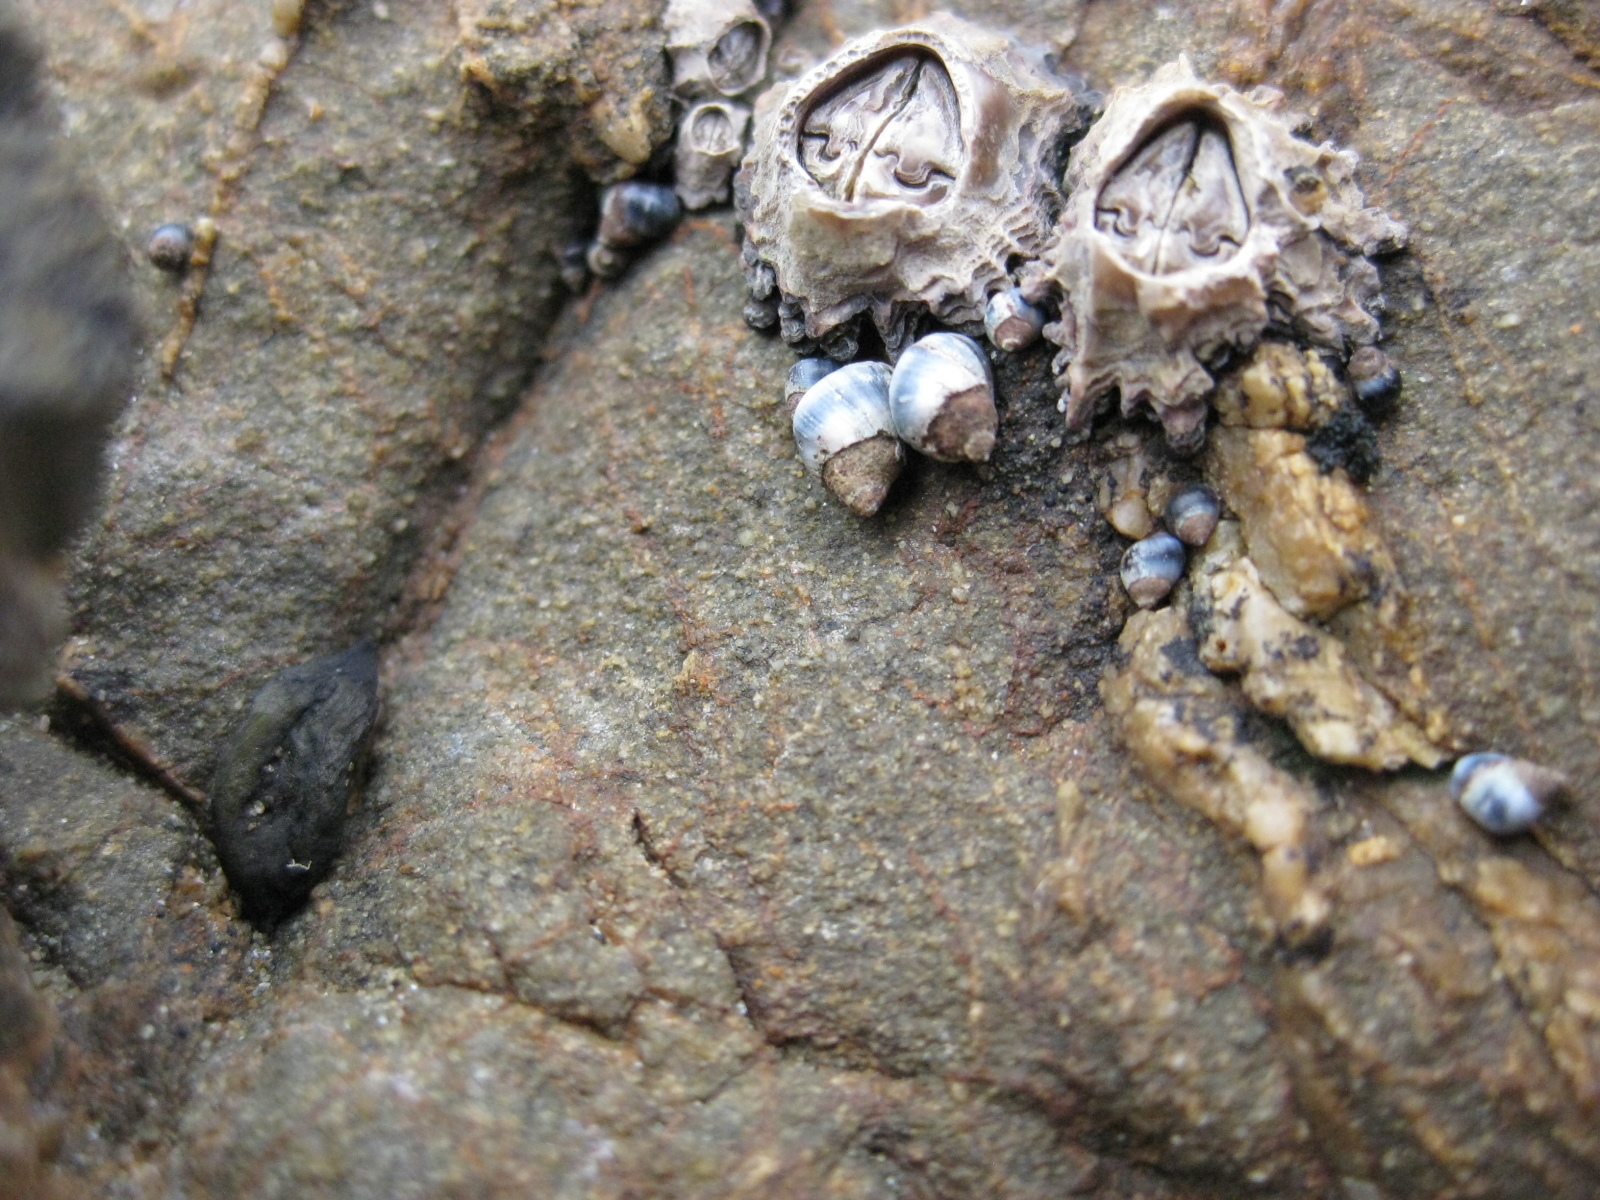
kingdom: Animalia
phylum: Mollusca
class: Gastropoda
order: Littorinimorpha
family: Littorinidae
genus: Austrolittorina
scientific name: Austrolittorina antipodum
